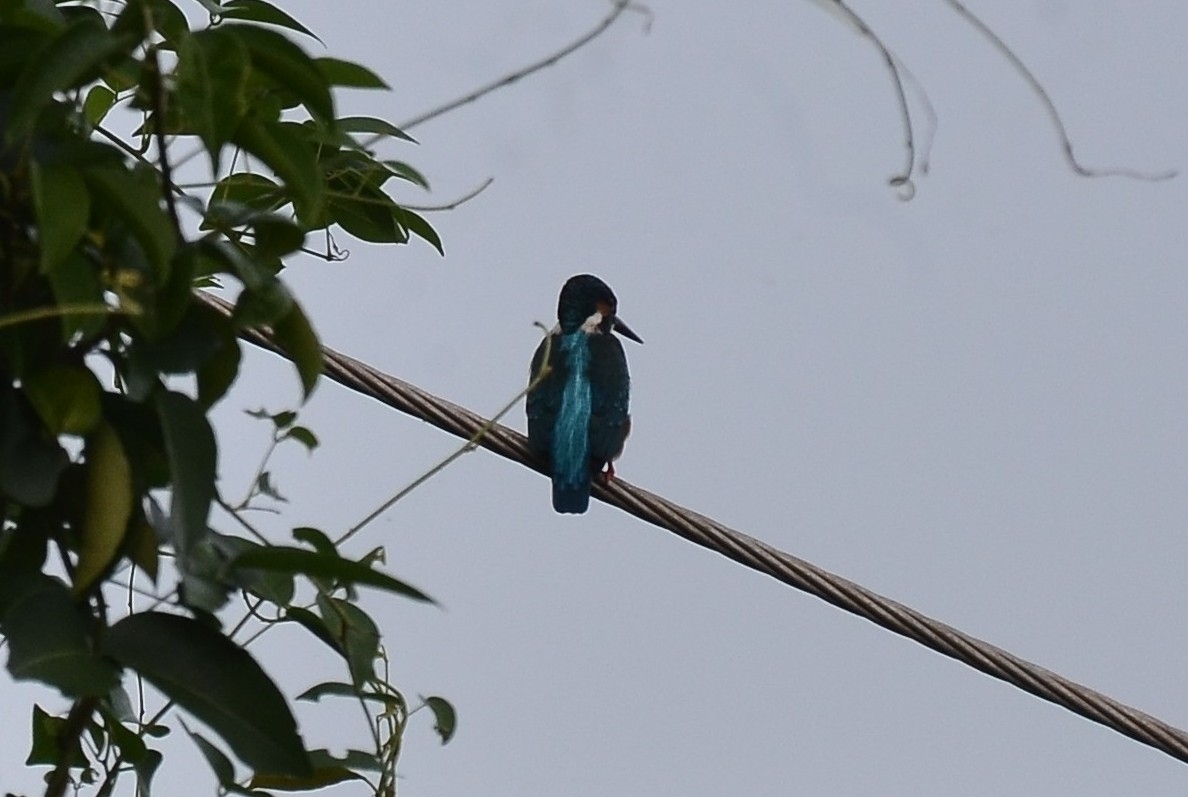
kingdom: Animalia
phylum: Chordata
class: Aves
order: Coraciiformes
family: Alcedinidae
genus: Alcedo
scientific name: Alcedo atthis
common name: Common kingfisher
